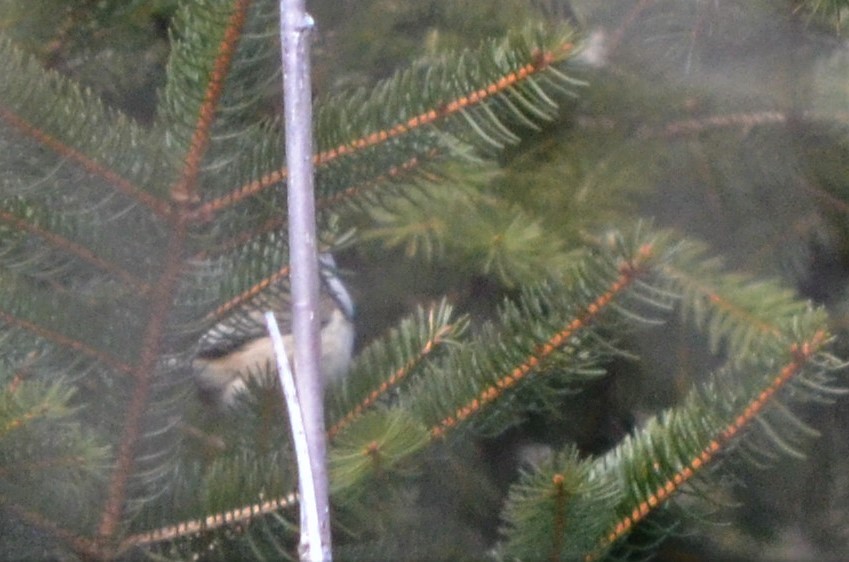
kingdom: Animalia
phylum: Chordata
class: Aves
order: Passeriformes
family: Paridae
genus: Lophophanes
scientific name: Lophophanes cristatus
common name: European crested tit
